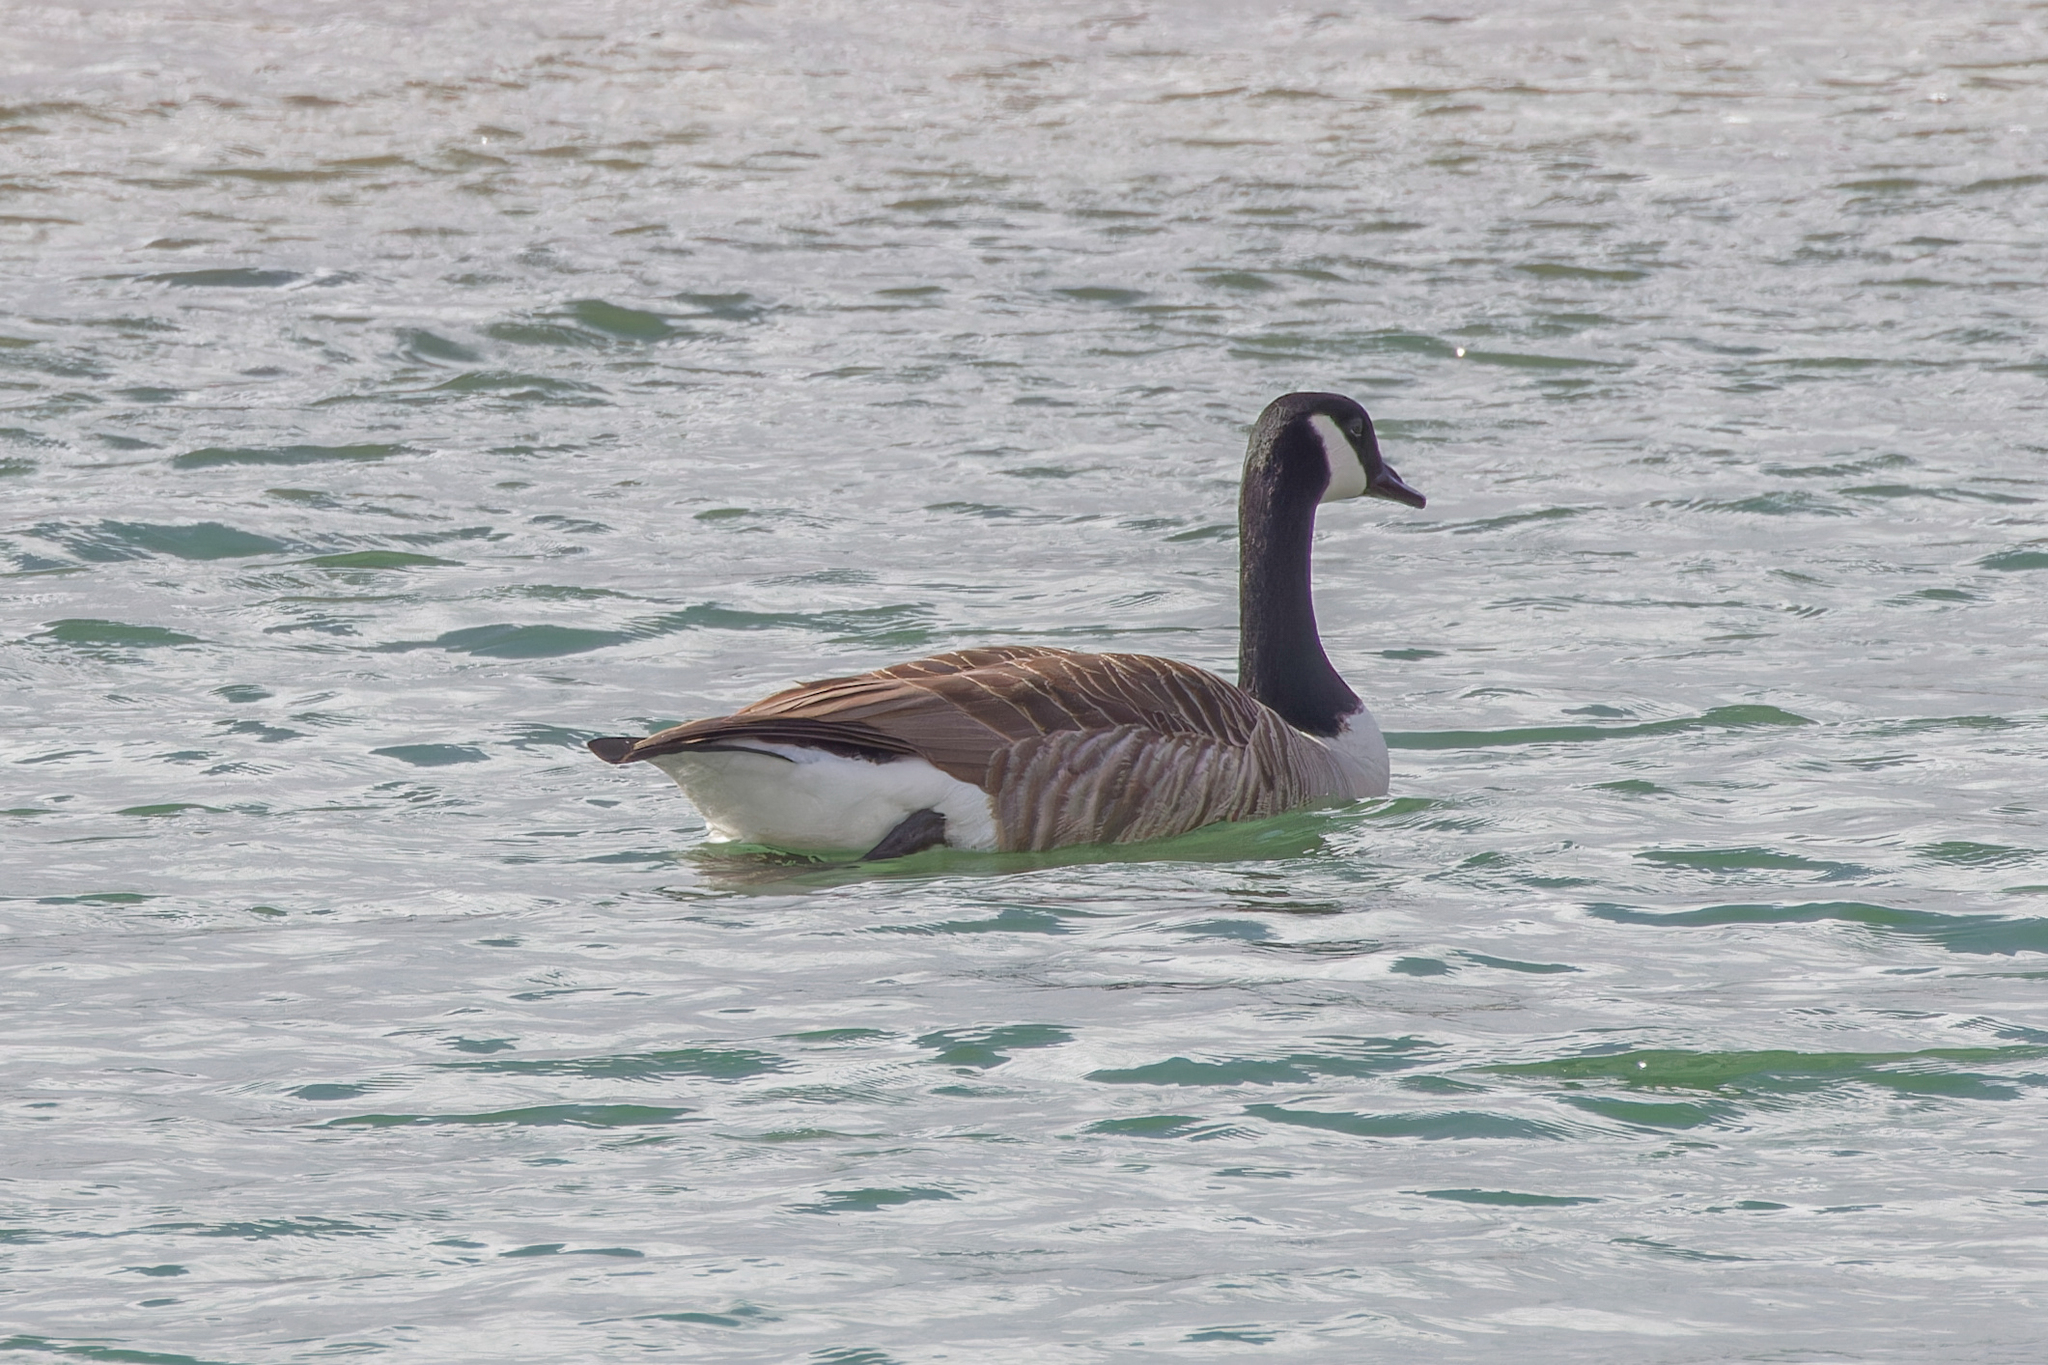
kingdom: Animalia
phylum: Chordata
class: Aves
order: Anseriformes
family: Anatidae
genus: Branta
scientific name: Branta canadensis
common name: Canada goose
